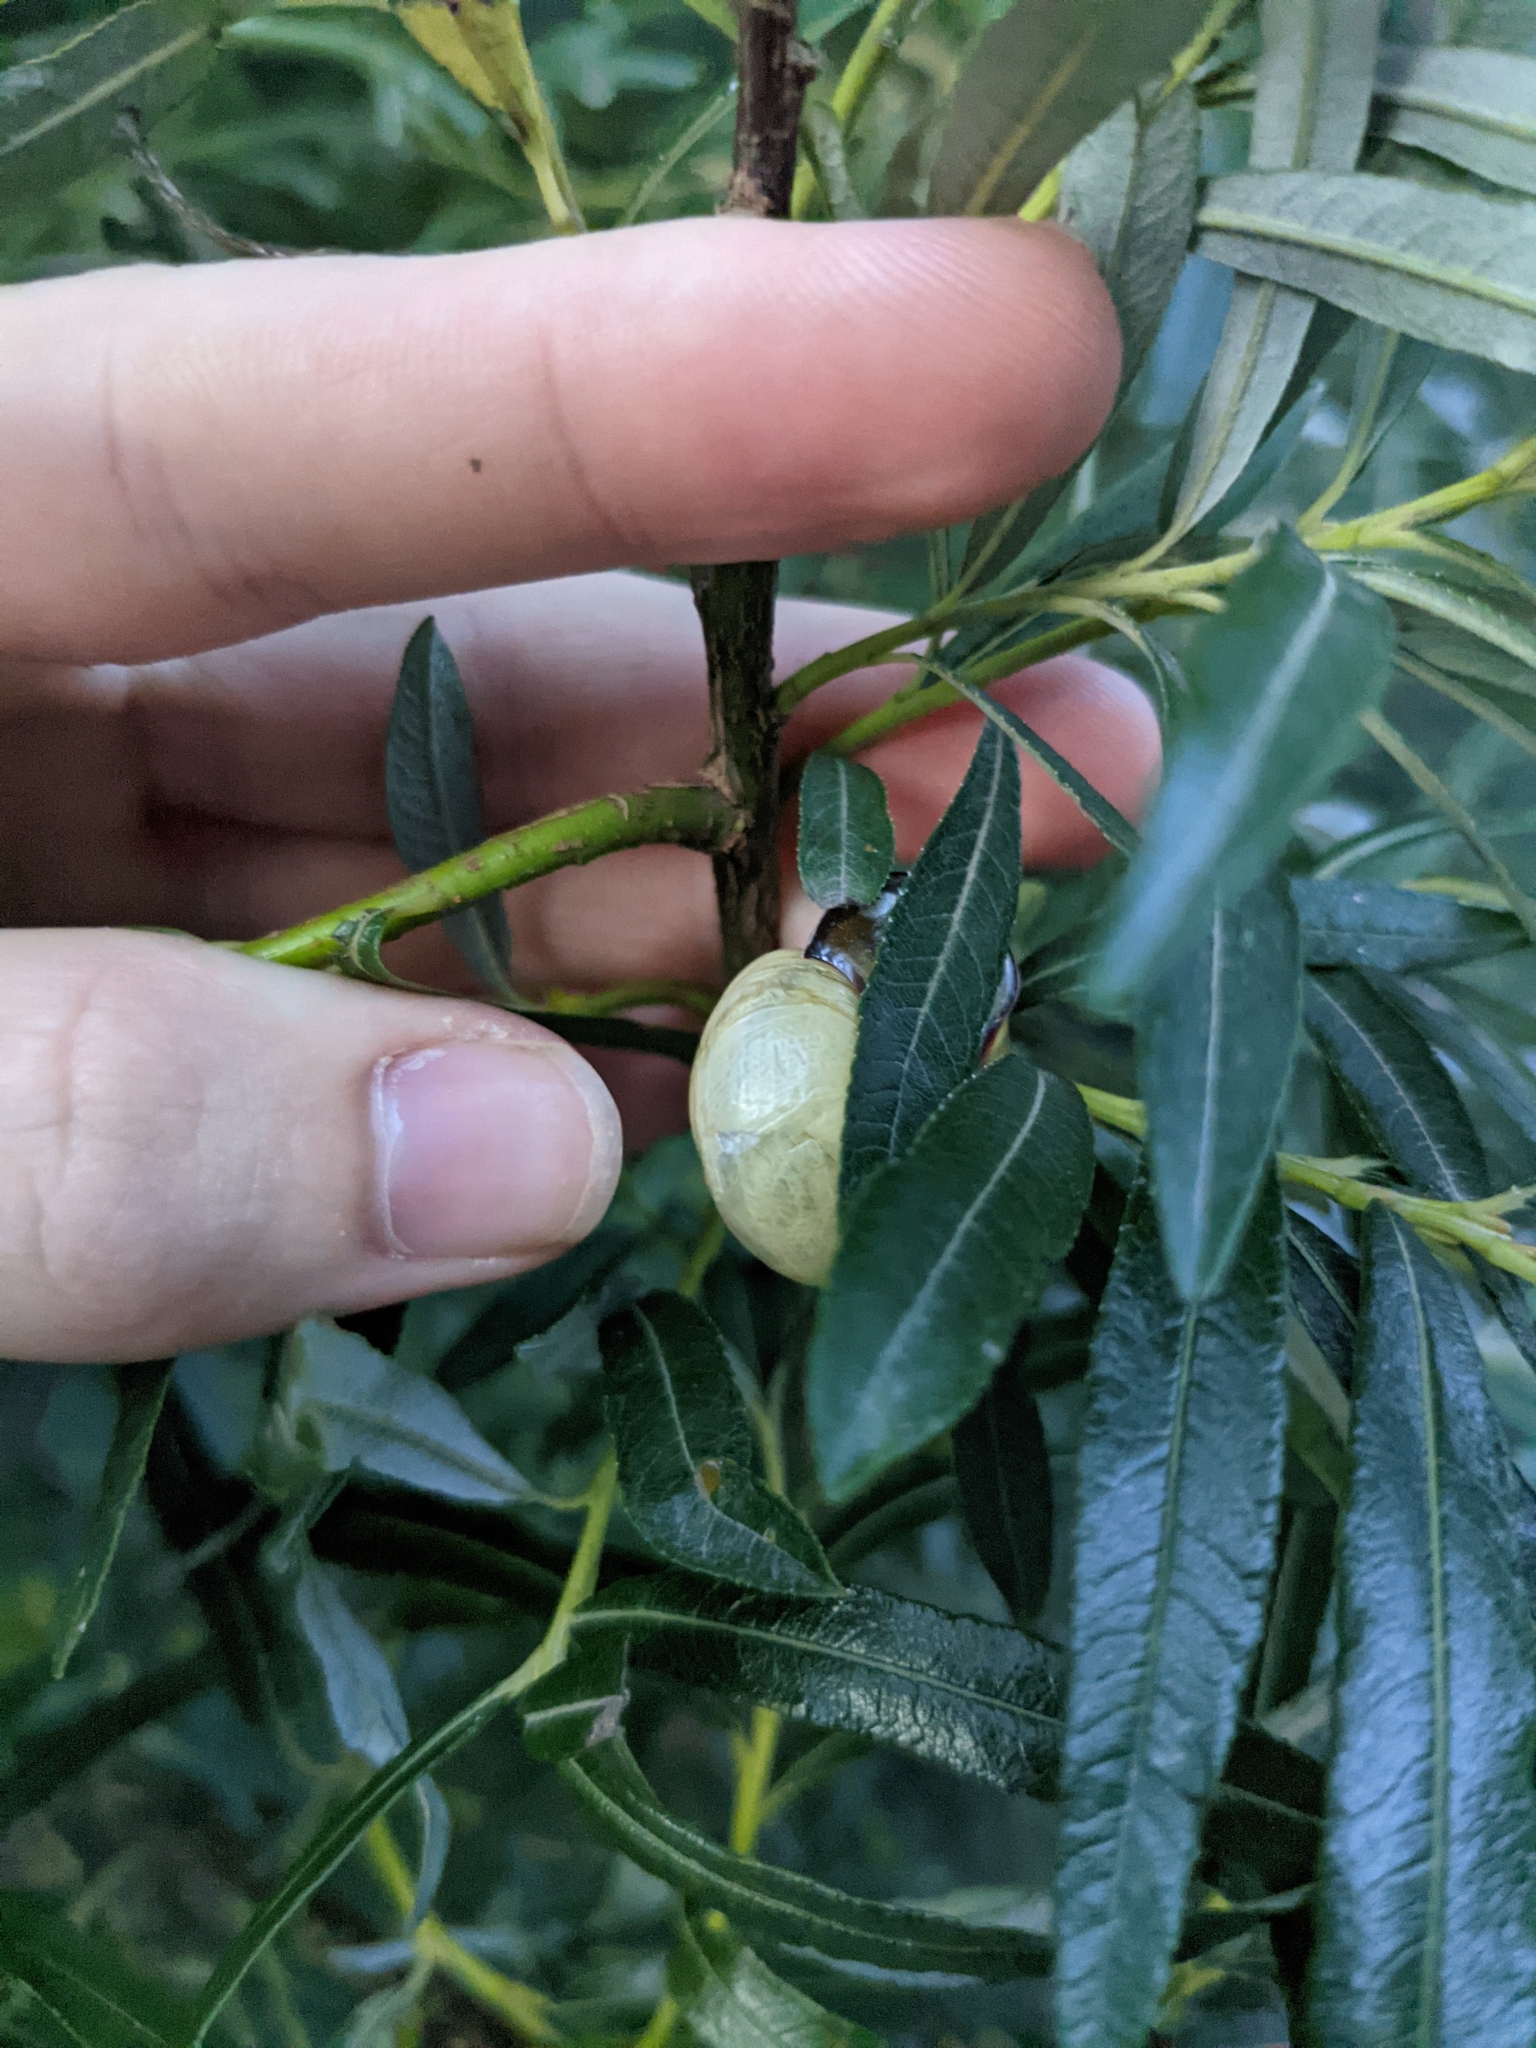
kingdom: Animalia
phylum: Mollusca
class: Gastropoda
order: Stylommatophora
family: Helicidae
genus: Cepaea
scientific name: Cepaea nemoralis
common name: Grovesnail
